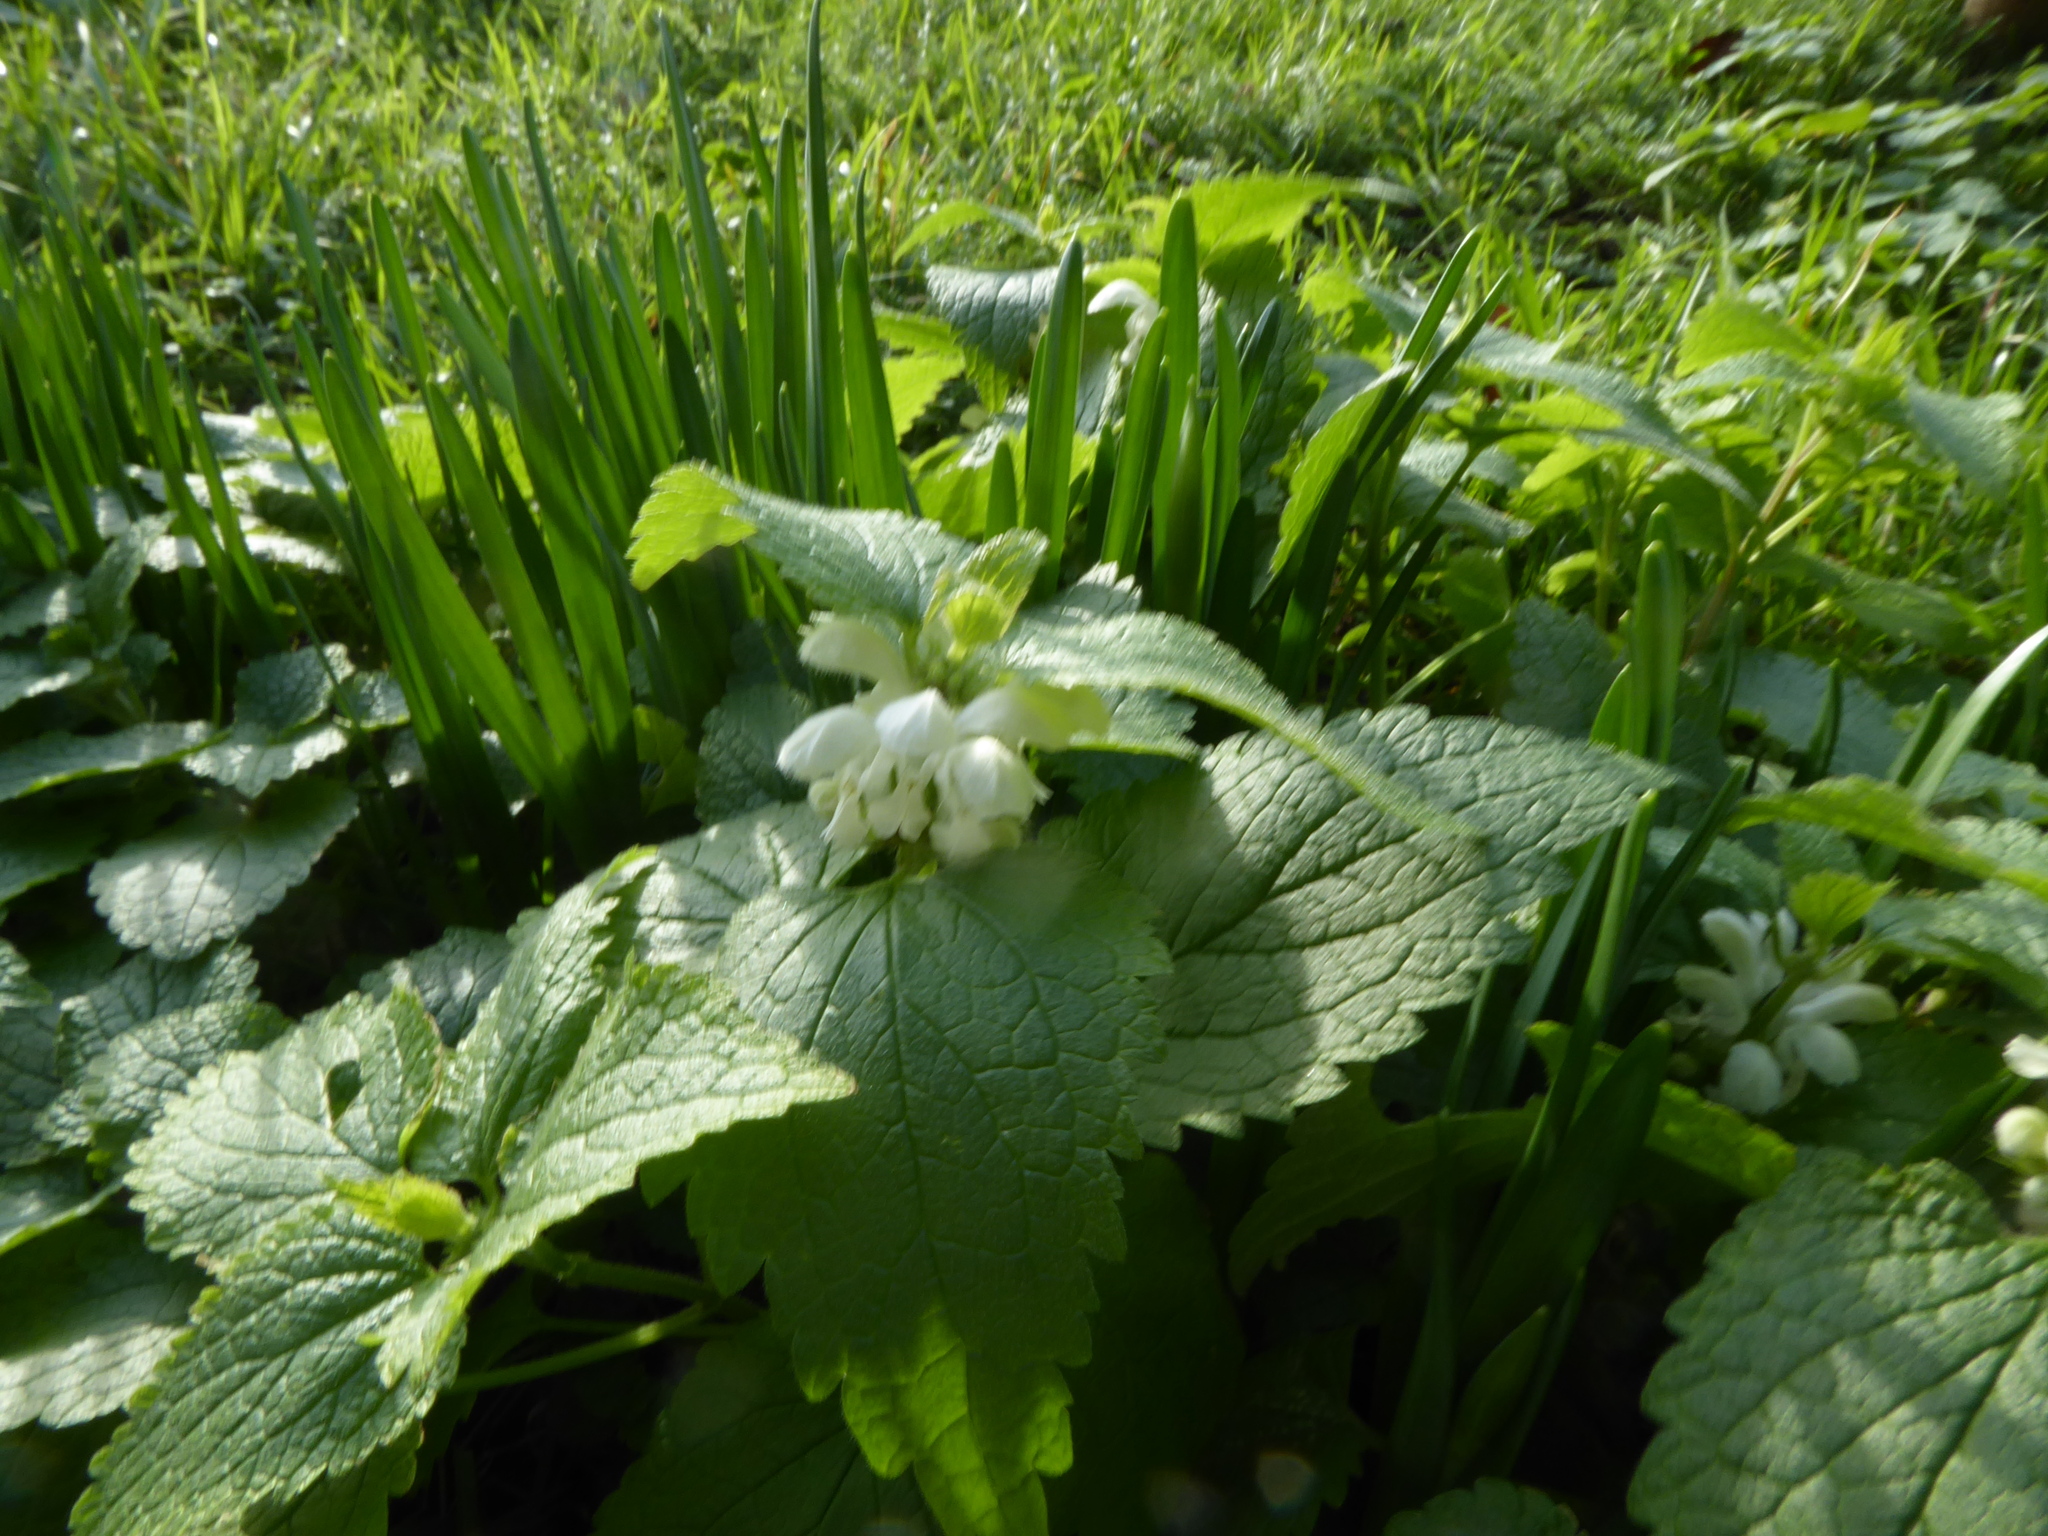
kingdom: Plantae
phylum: Tracheophyta
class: Magnoliopsida
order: Lamiales
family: Lamiaceae
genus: Lamium
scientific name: Lamium album
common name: White dead-nettle
